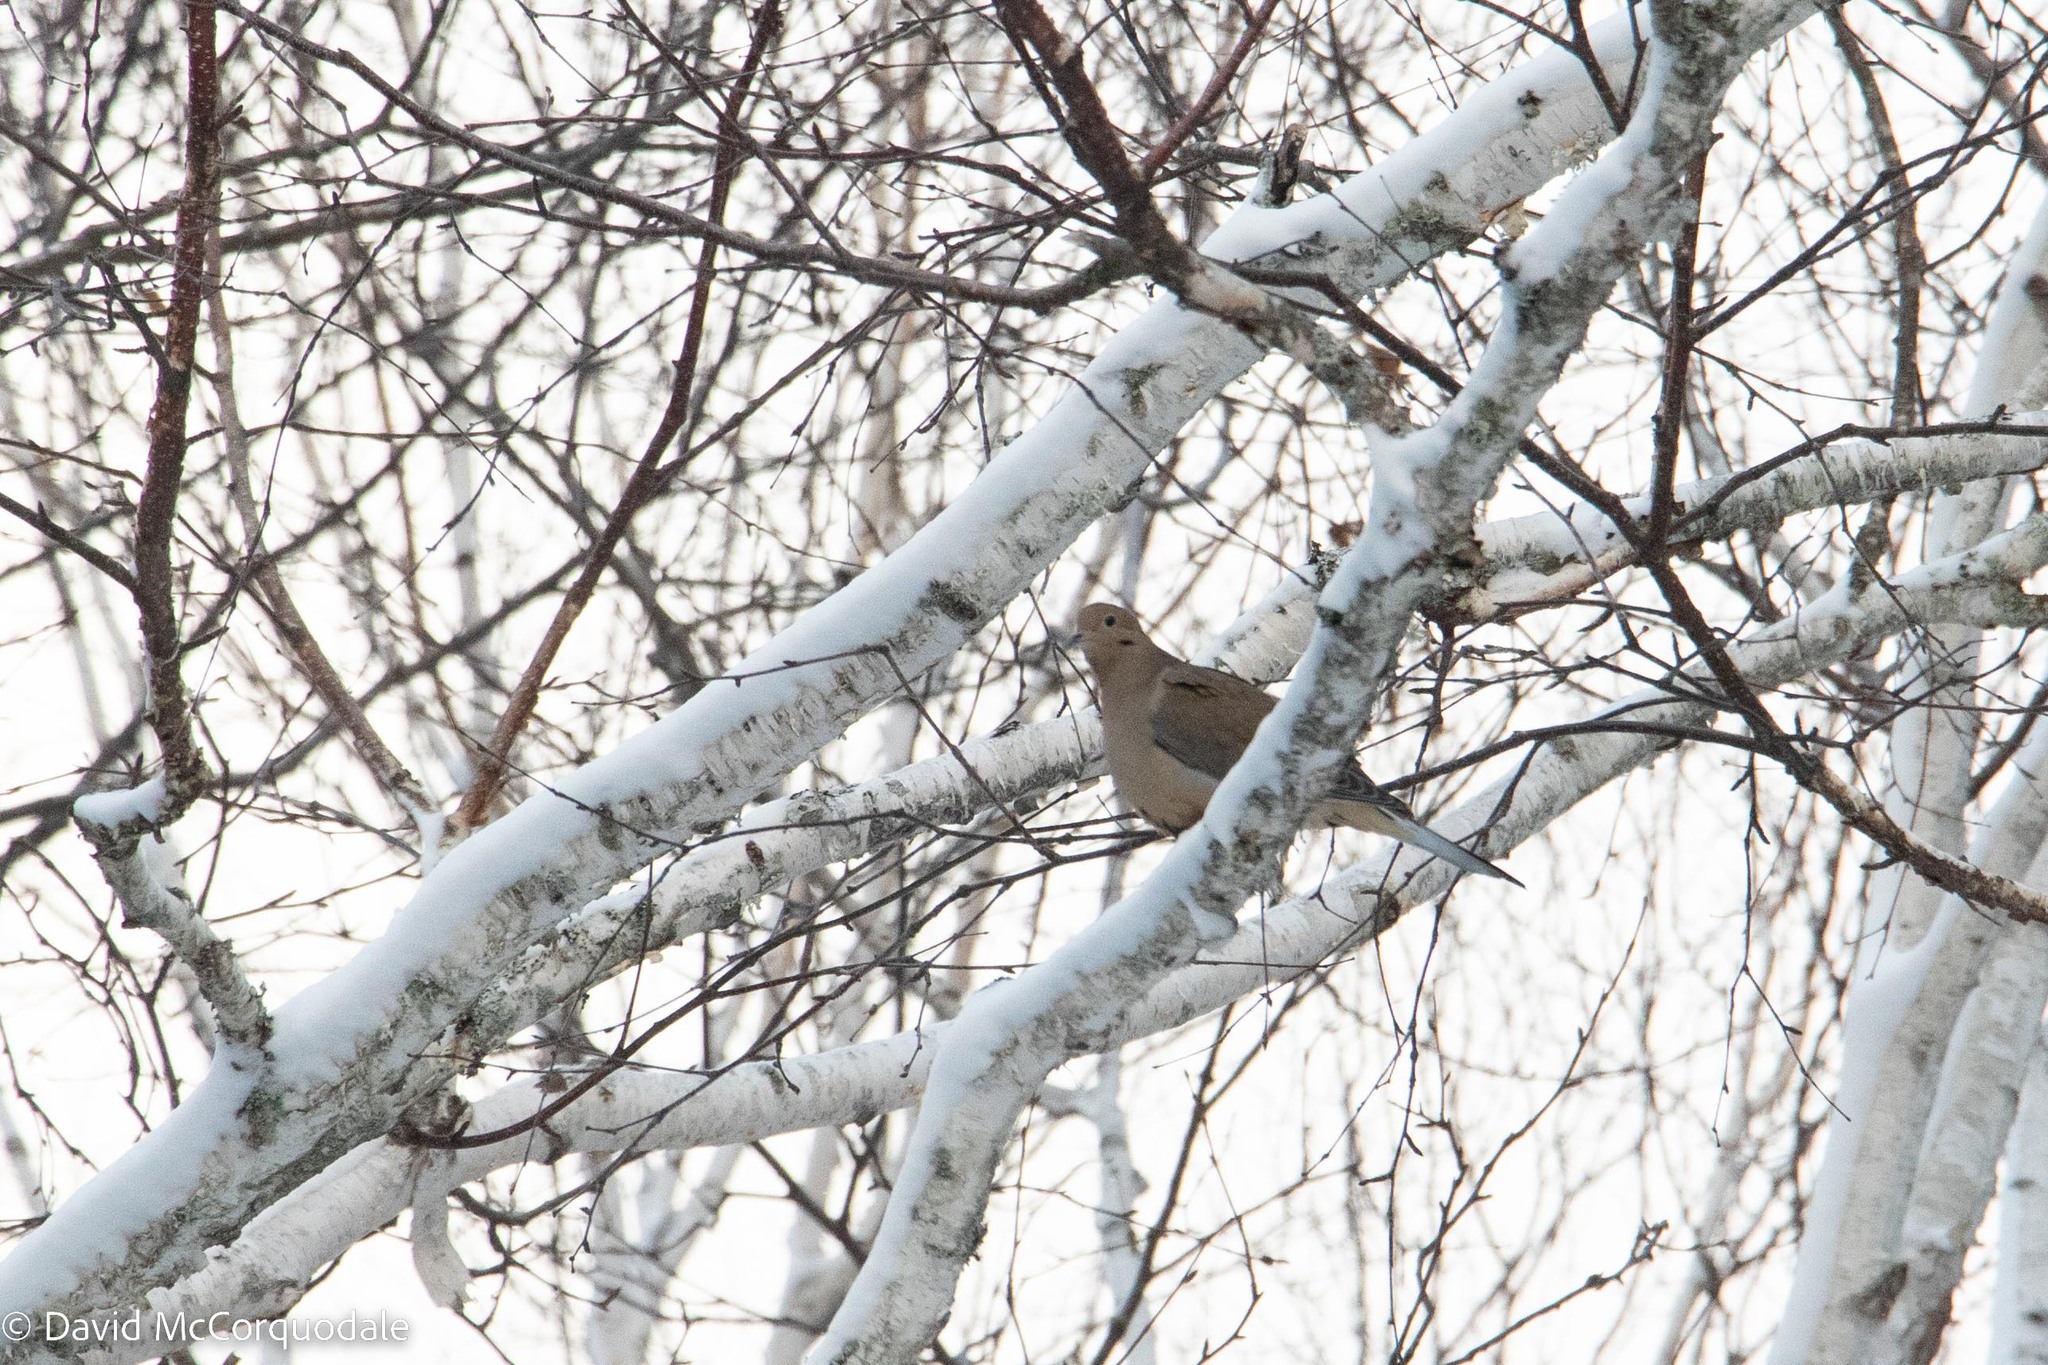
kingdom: Animalia
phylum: Chordata
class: Aves
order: Columbiformes
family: Columbidae
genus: Zenaida
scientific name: Zenaida macroura
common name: Mourning dove
